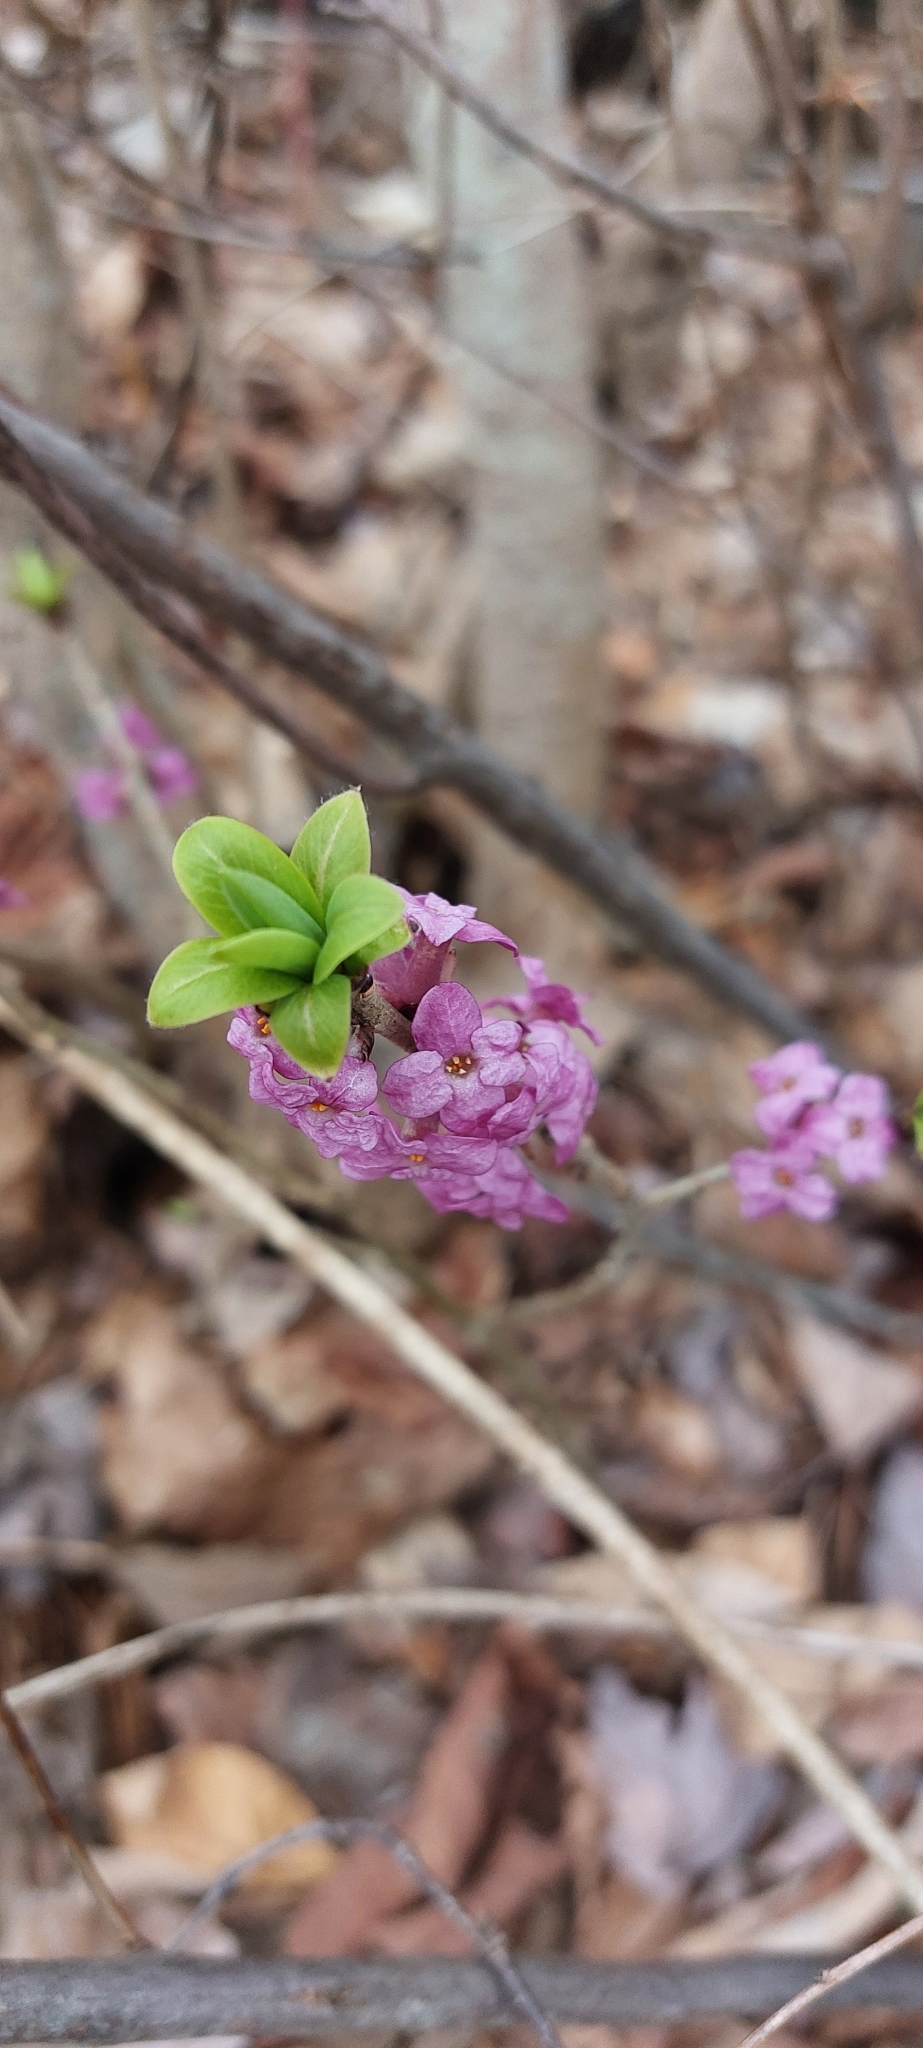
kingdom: Plantae
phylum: Tracheophyta
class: Magnoliopsida
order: Malvales
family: Thymelaeaceae
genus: Daphne
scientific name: Daphne mezereum
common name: Mezereon
